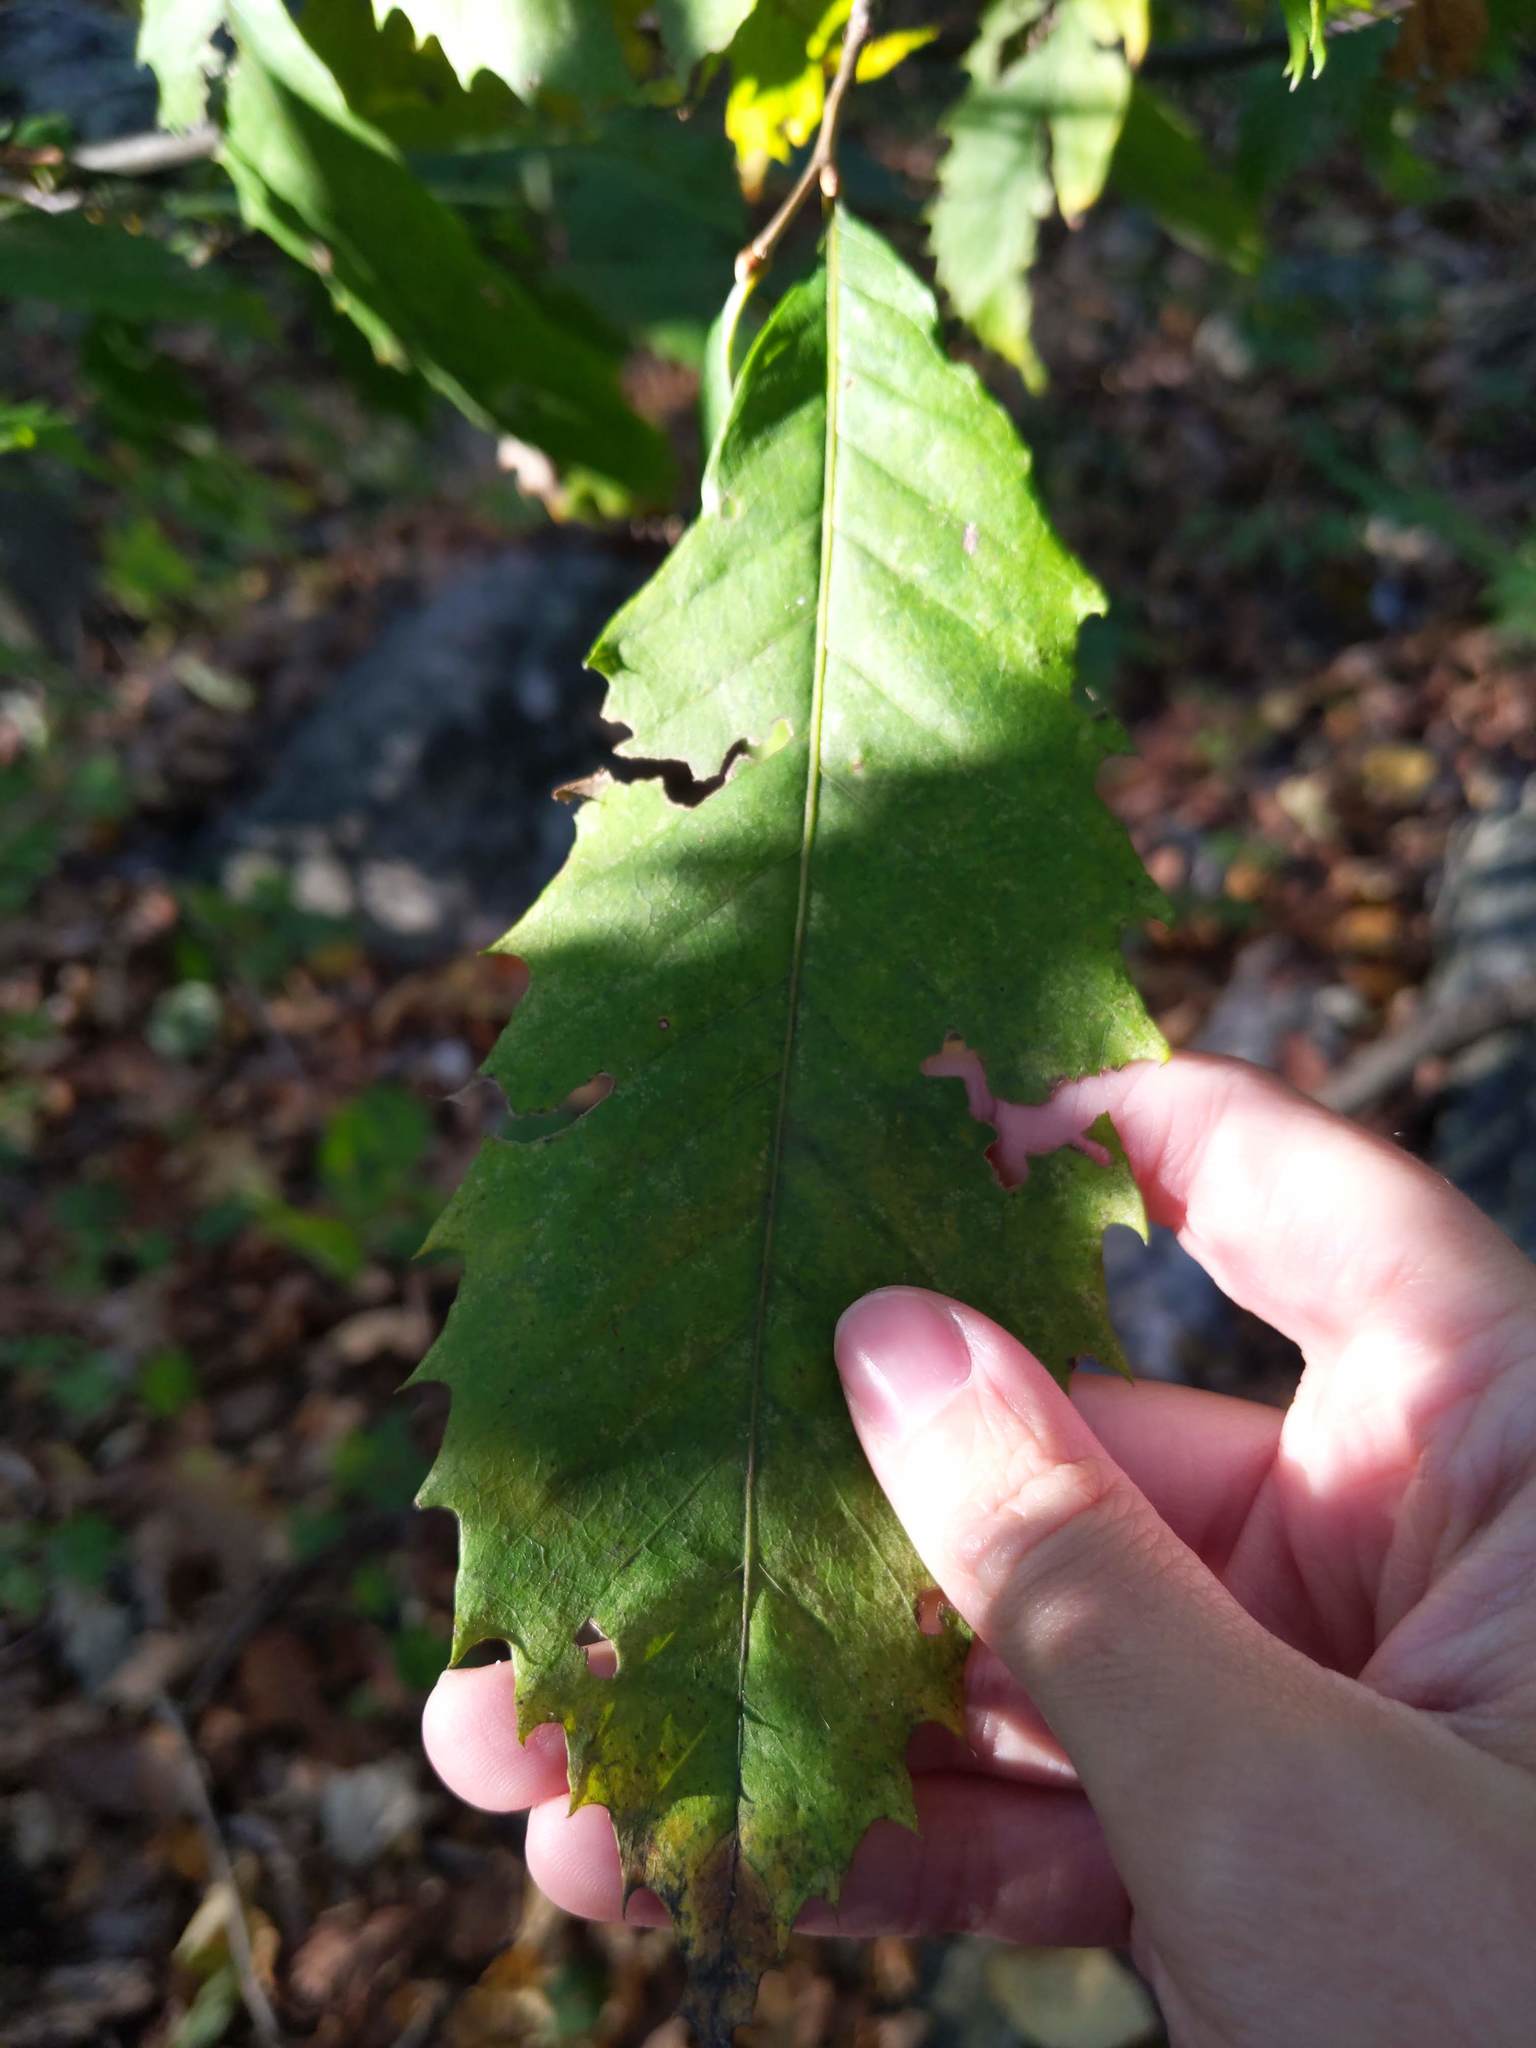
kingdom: Plantae
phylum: Tracheophyta
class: Magnoliopsida
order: Fagales
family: Fagaceae
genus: Castanea
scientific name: Castanea dentata
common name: American chestnut
